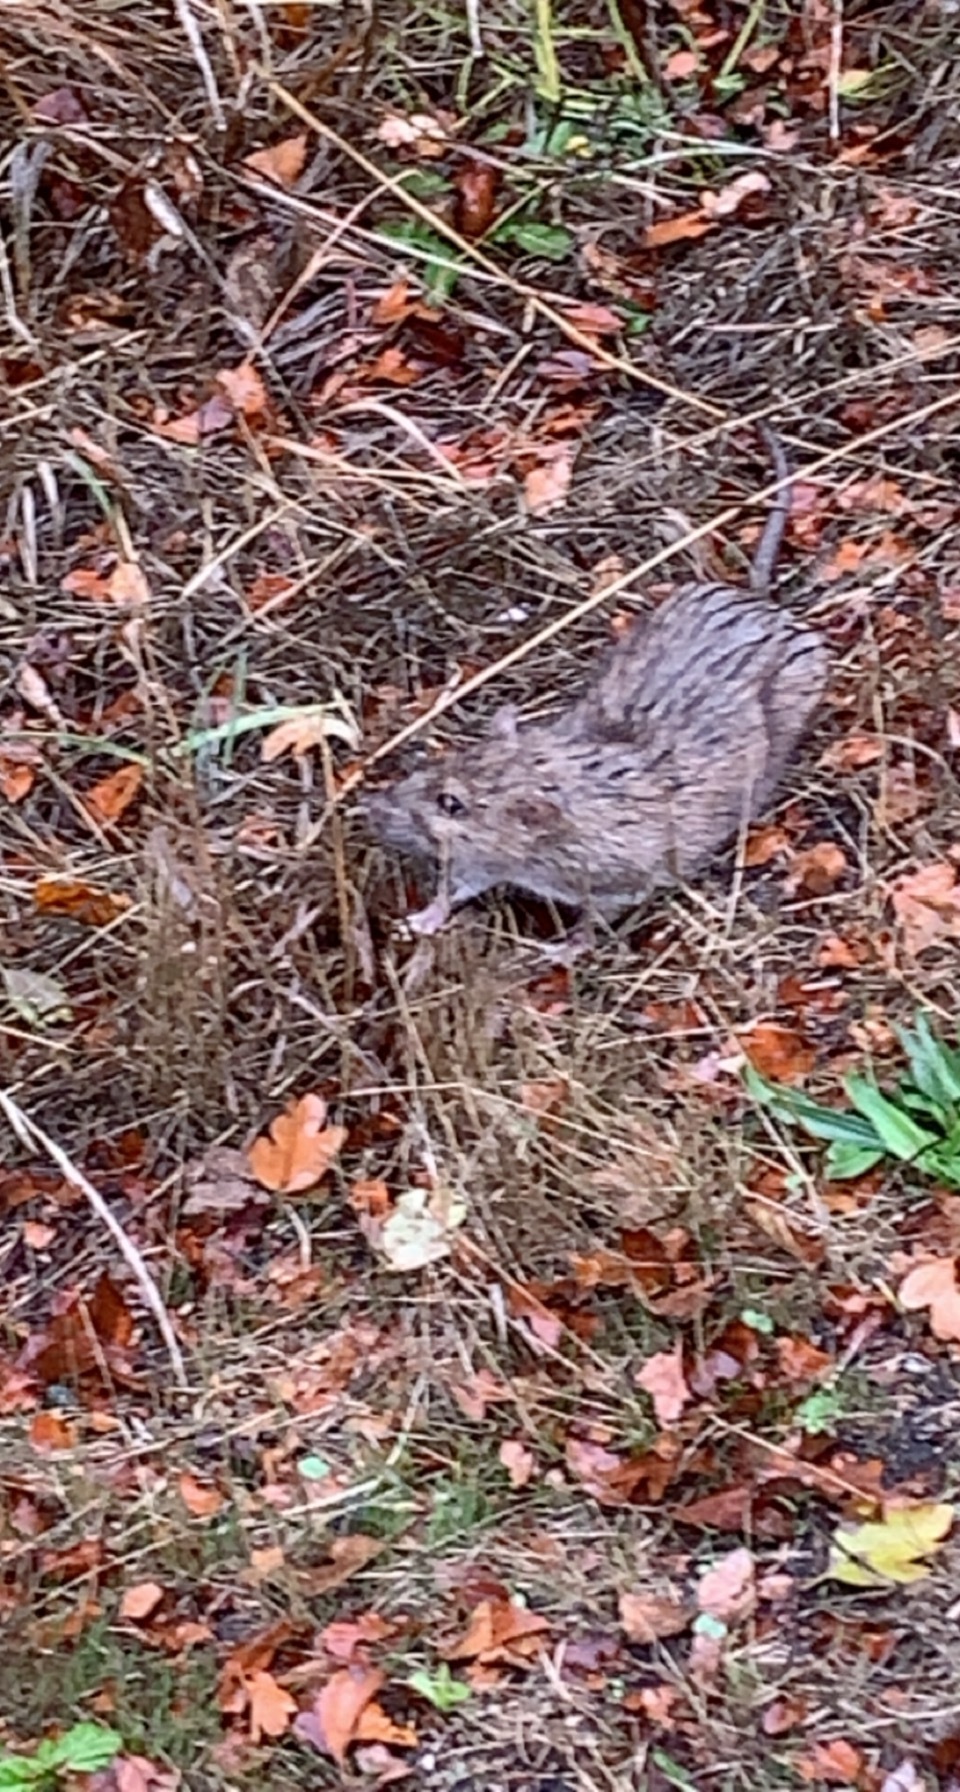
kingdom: Animalia
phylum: Chordata
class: Mammalia
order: Rodentia
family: Muridae
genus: Rattus
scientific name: Rattus norvegicus
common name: Brown rat
